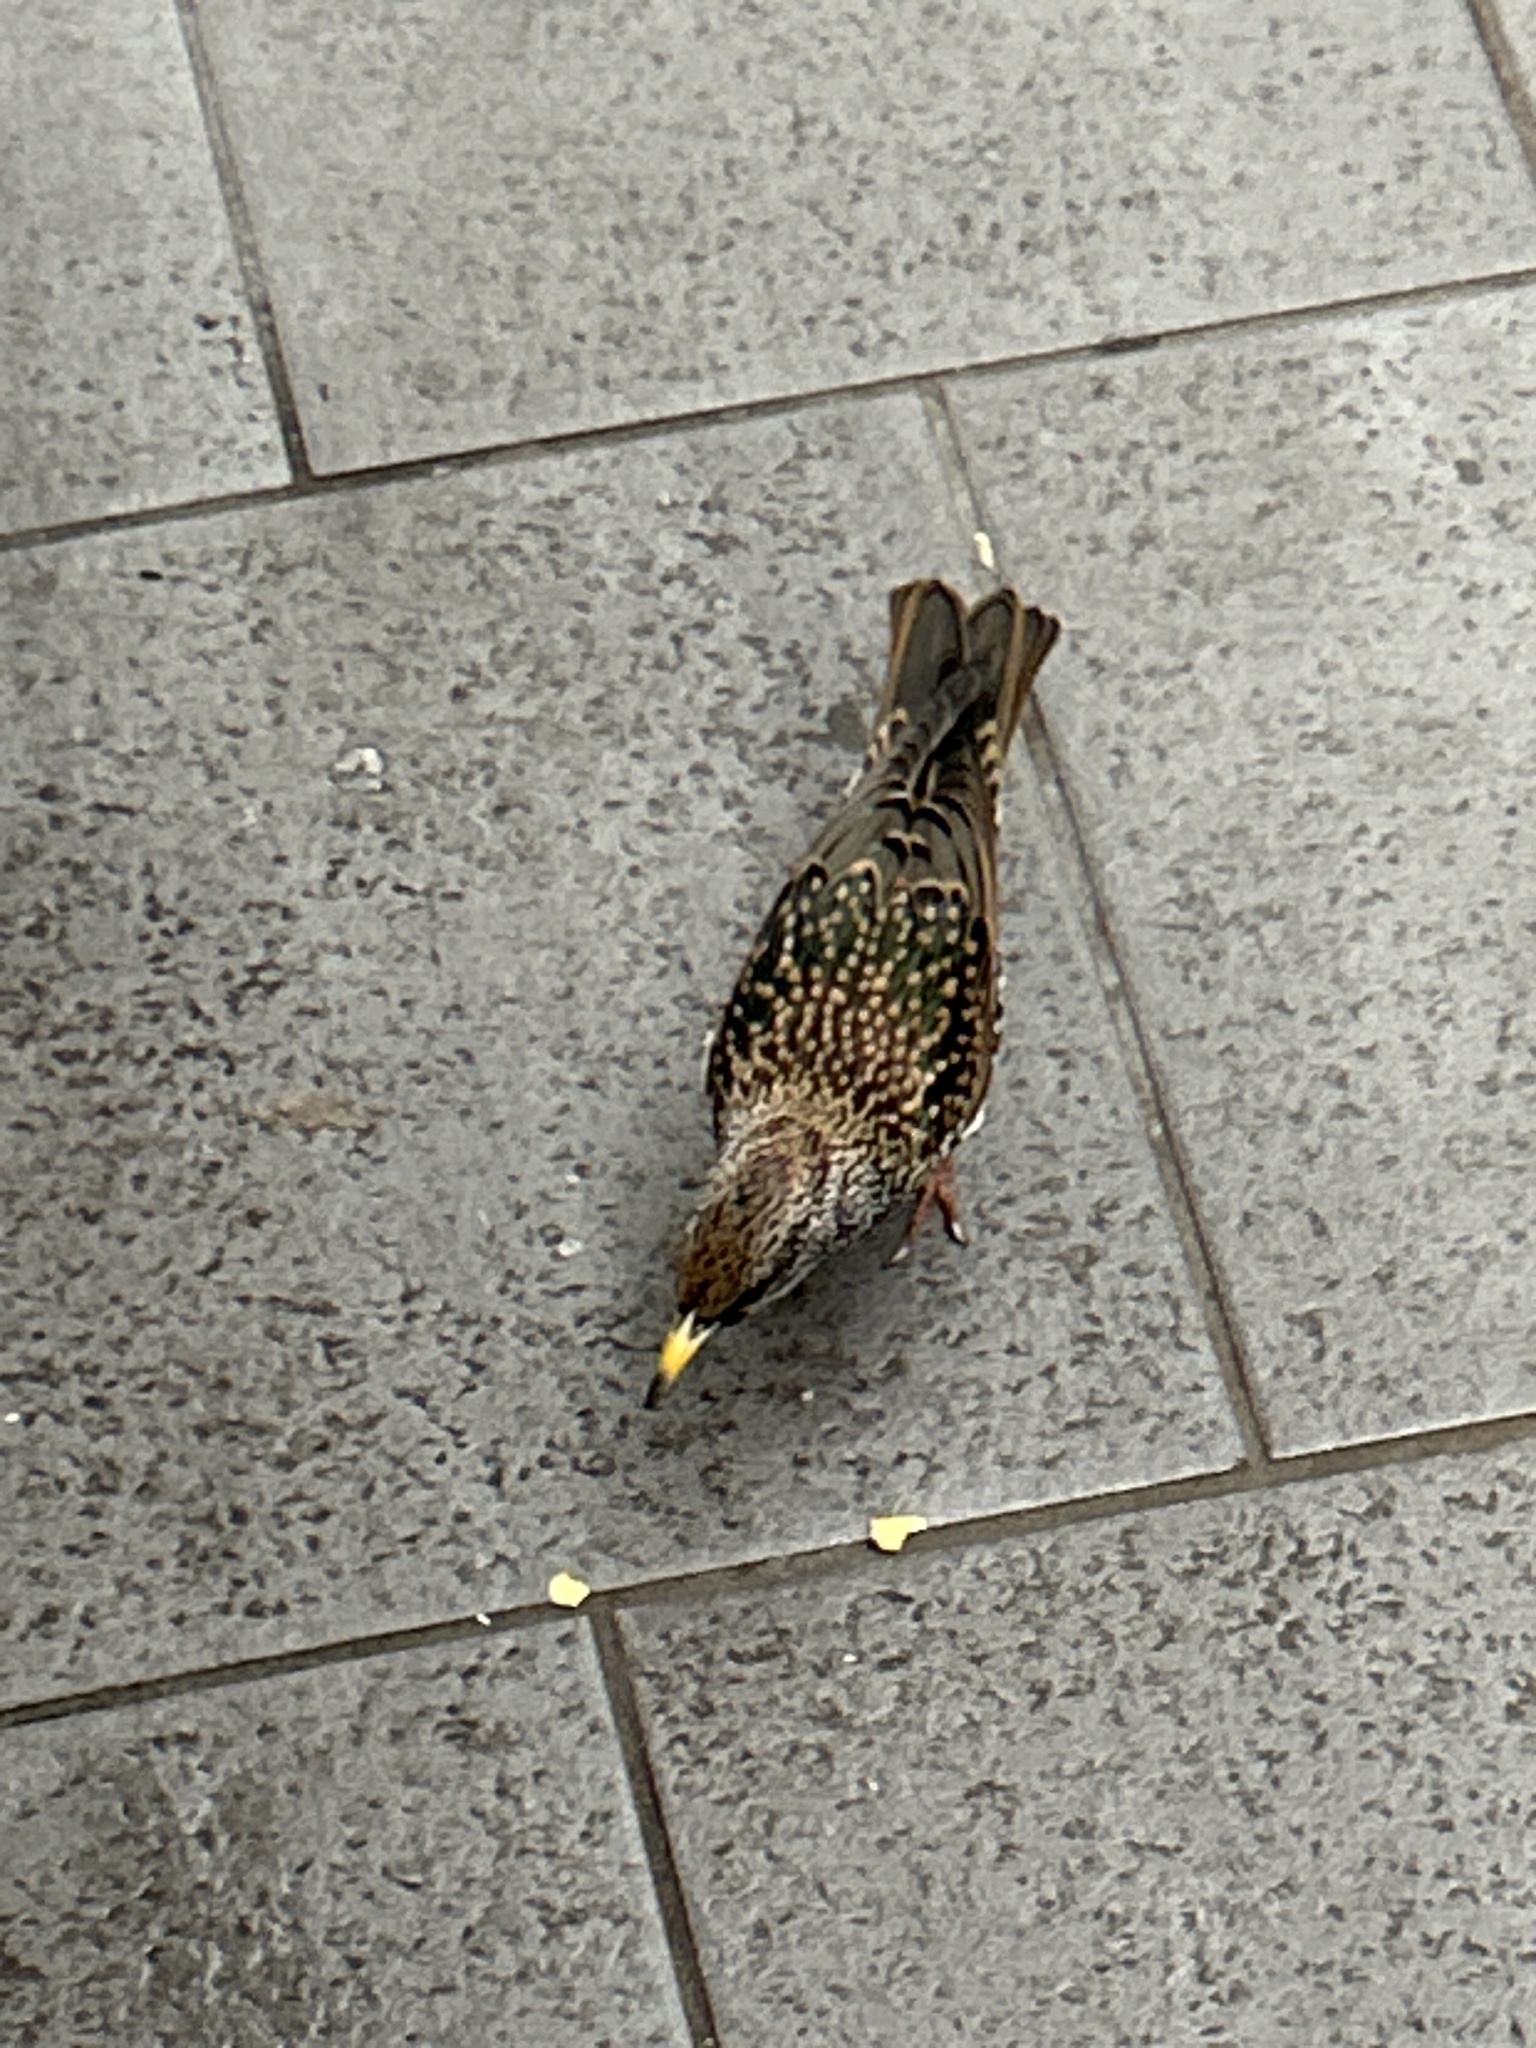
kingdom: Animalia
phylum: Chordata
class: Aves
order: Passeriformes
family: Sturnidae
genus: Sturnus
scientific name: Sturnus vulgaris
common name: Common starling
